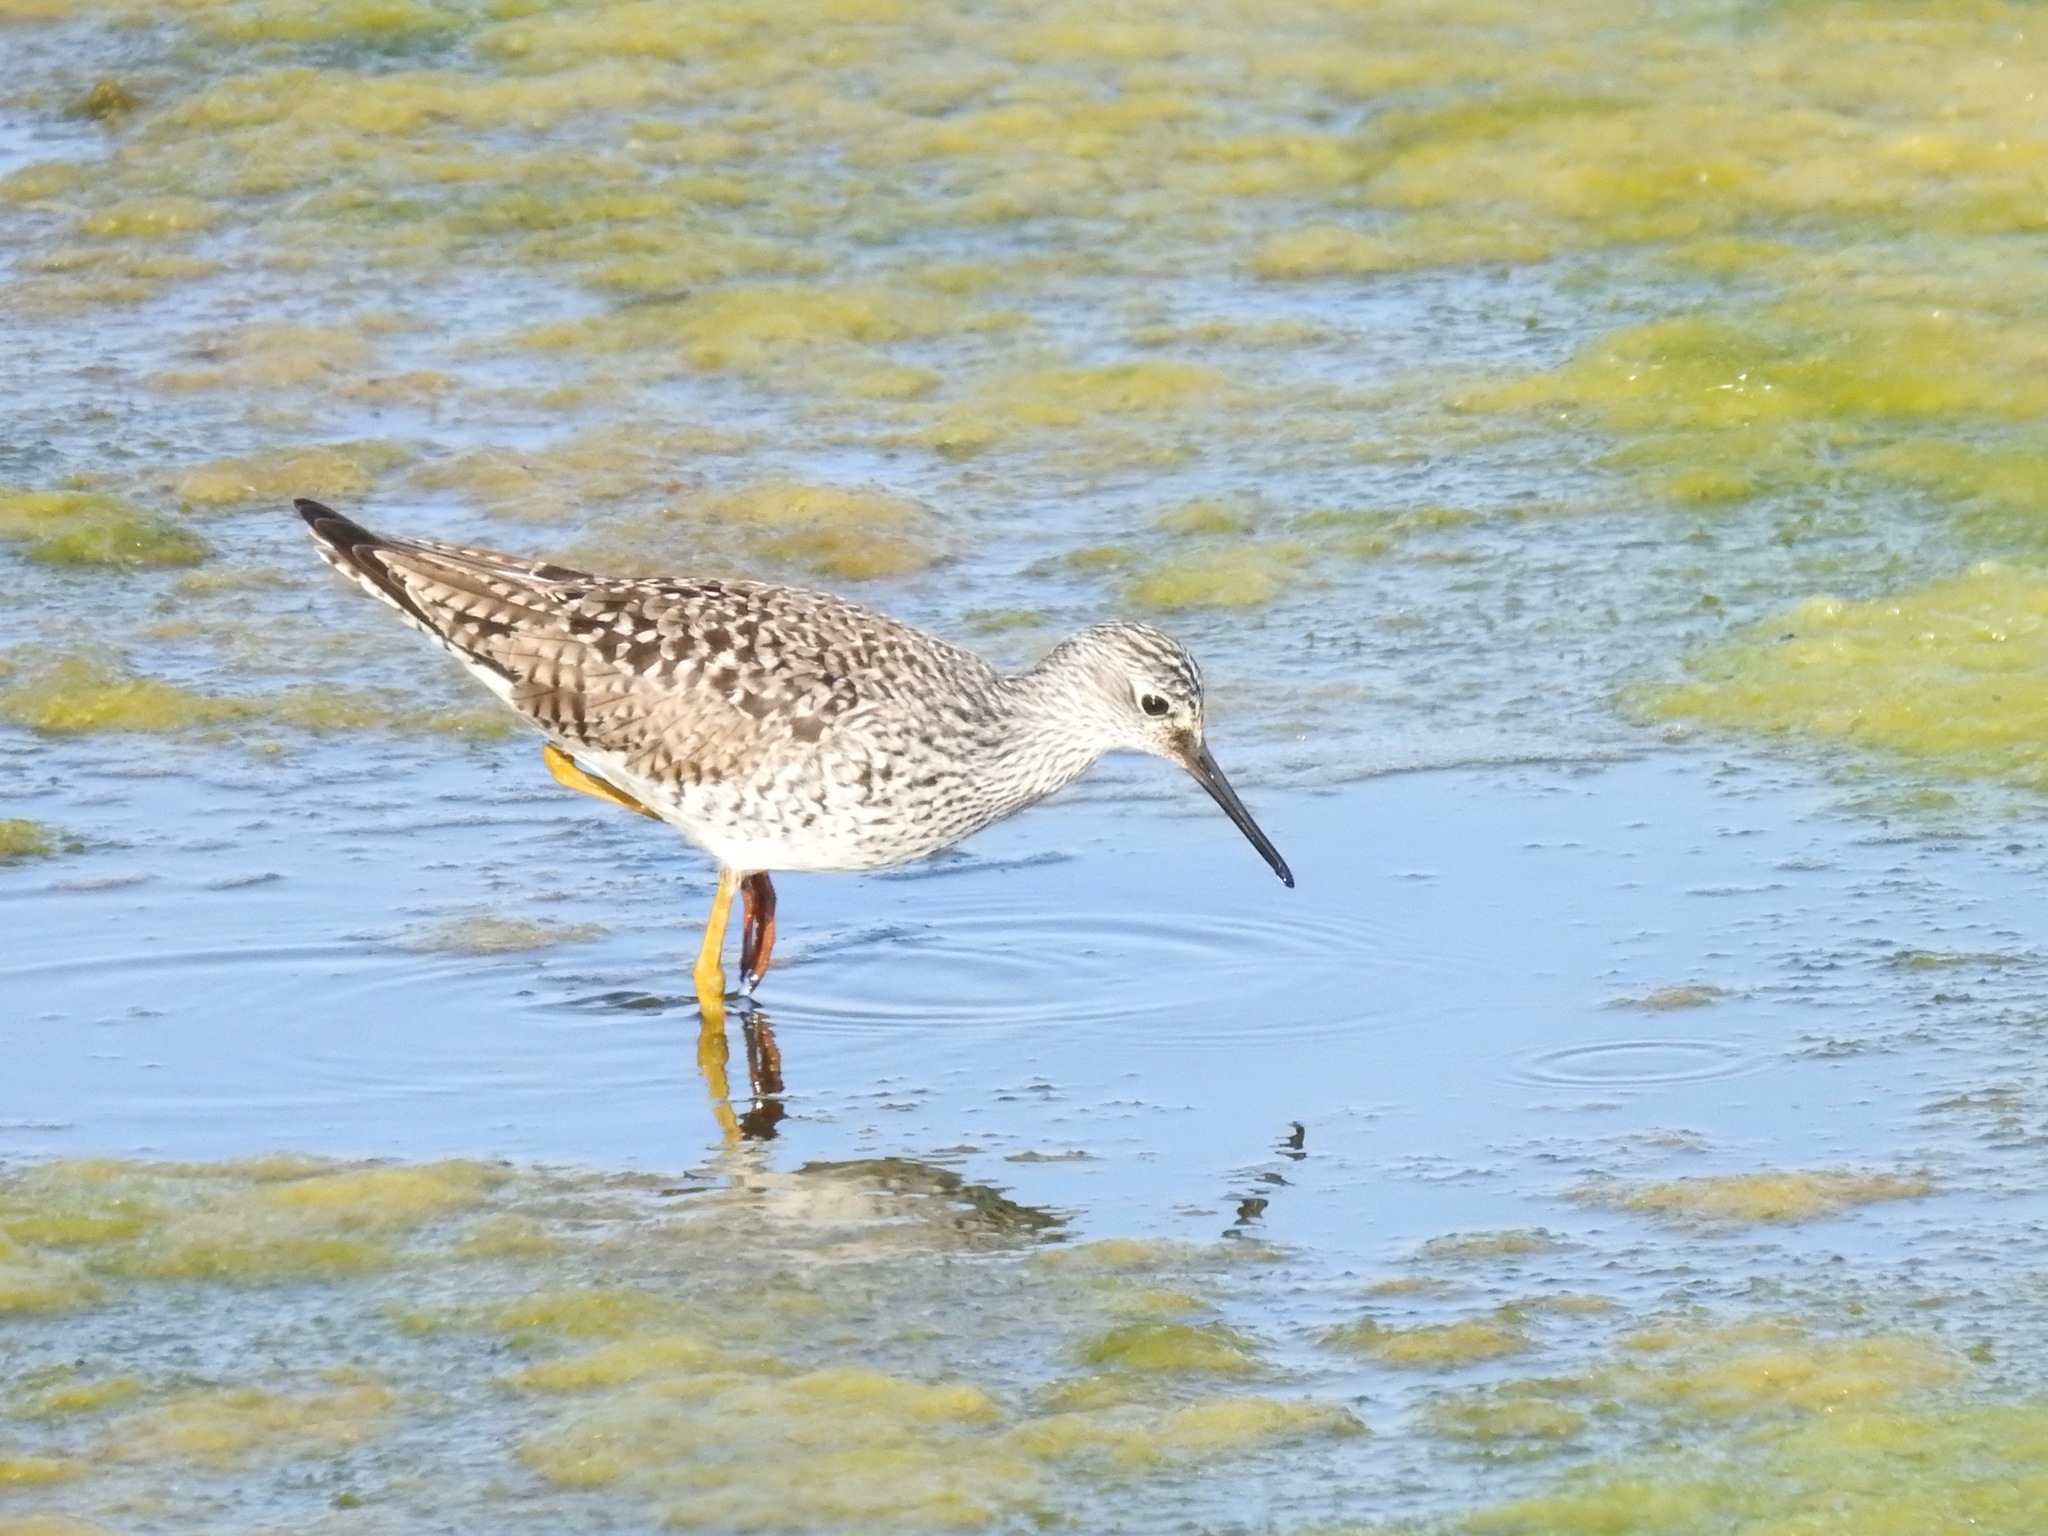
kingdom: Animalia
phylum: Chordata
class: Aves
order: Charadriiformes
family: Scolopacidae
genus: Tringa
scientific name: Tringa flavipes
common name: Lesser yellowlegs
